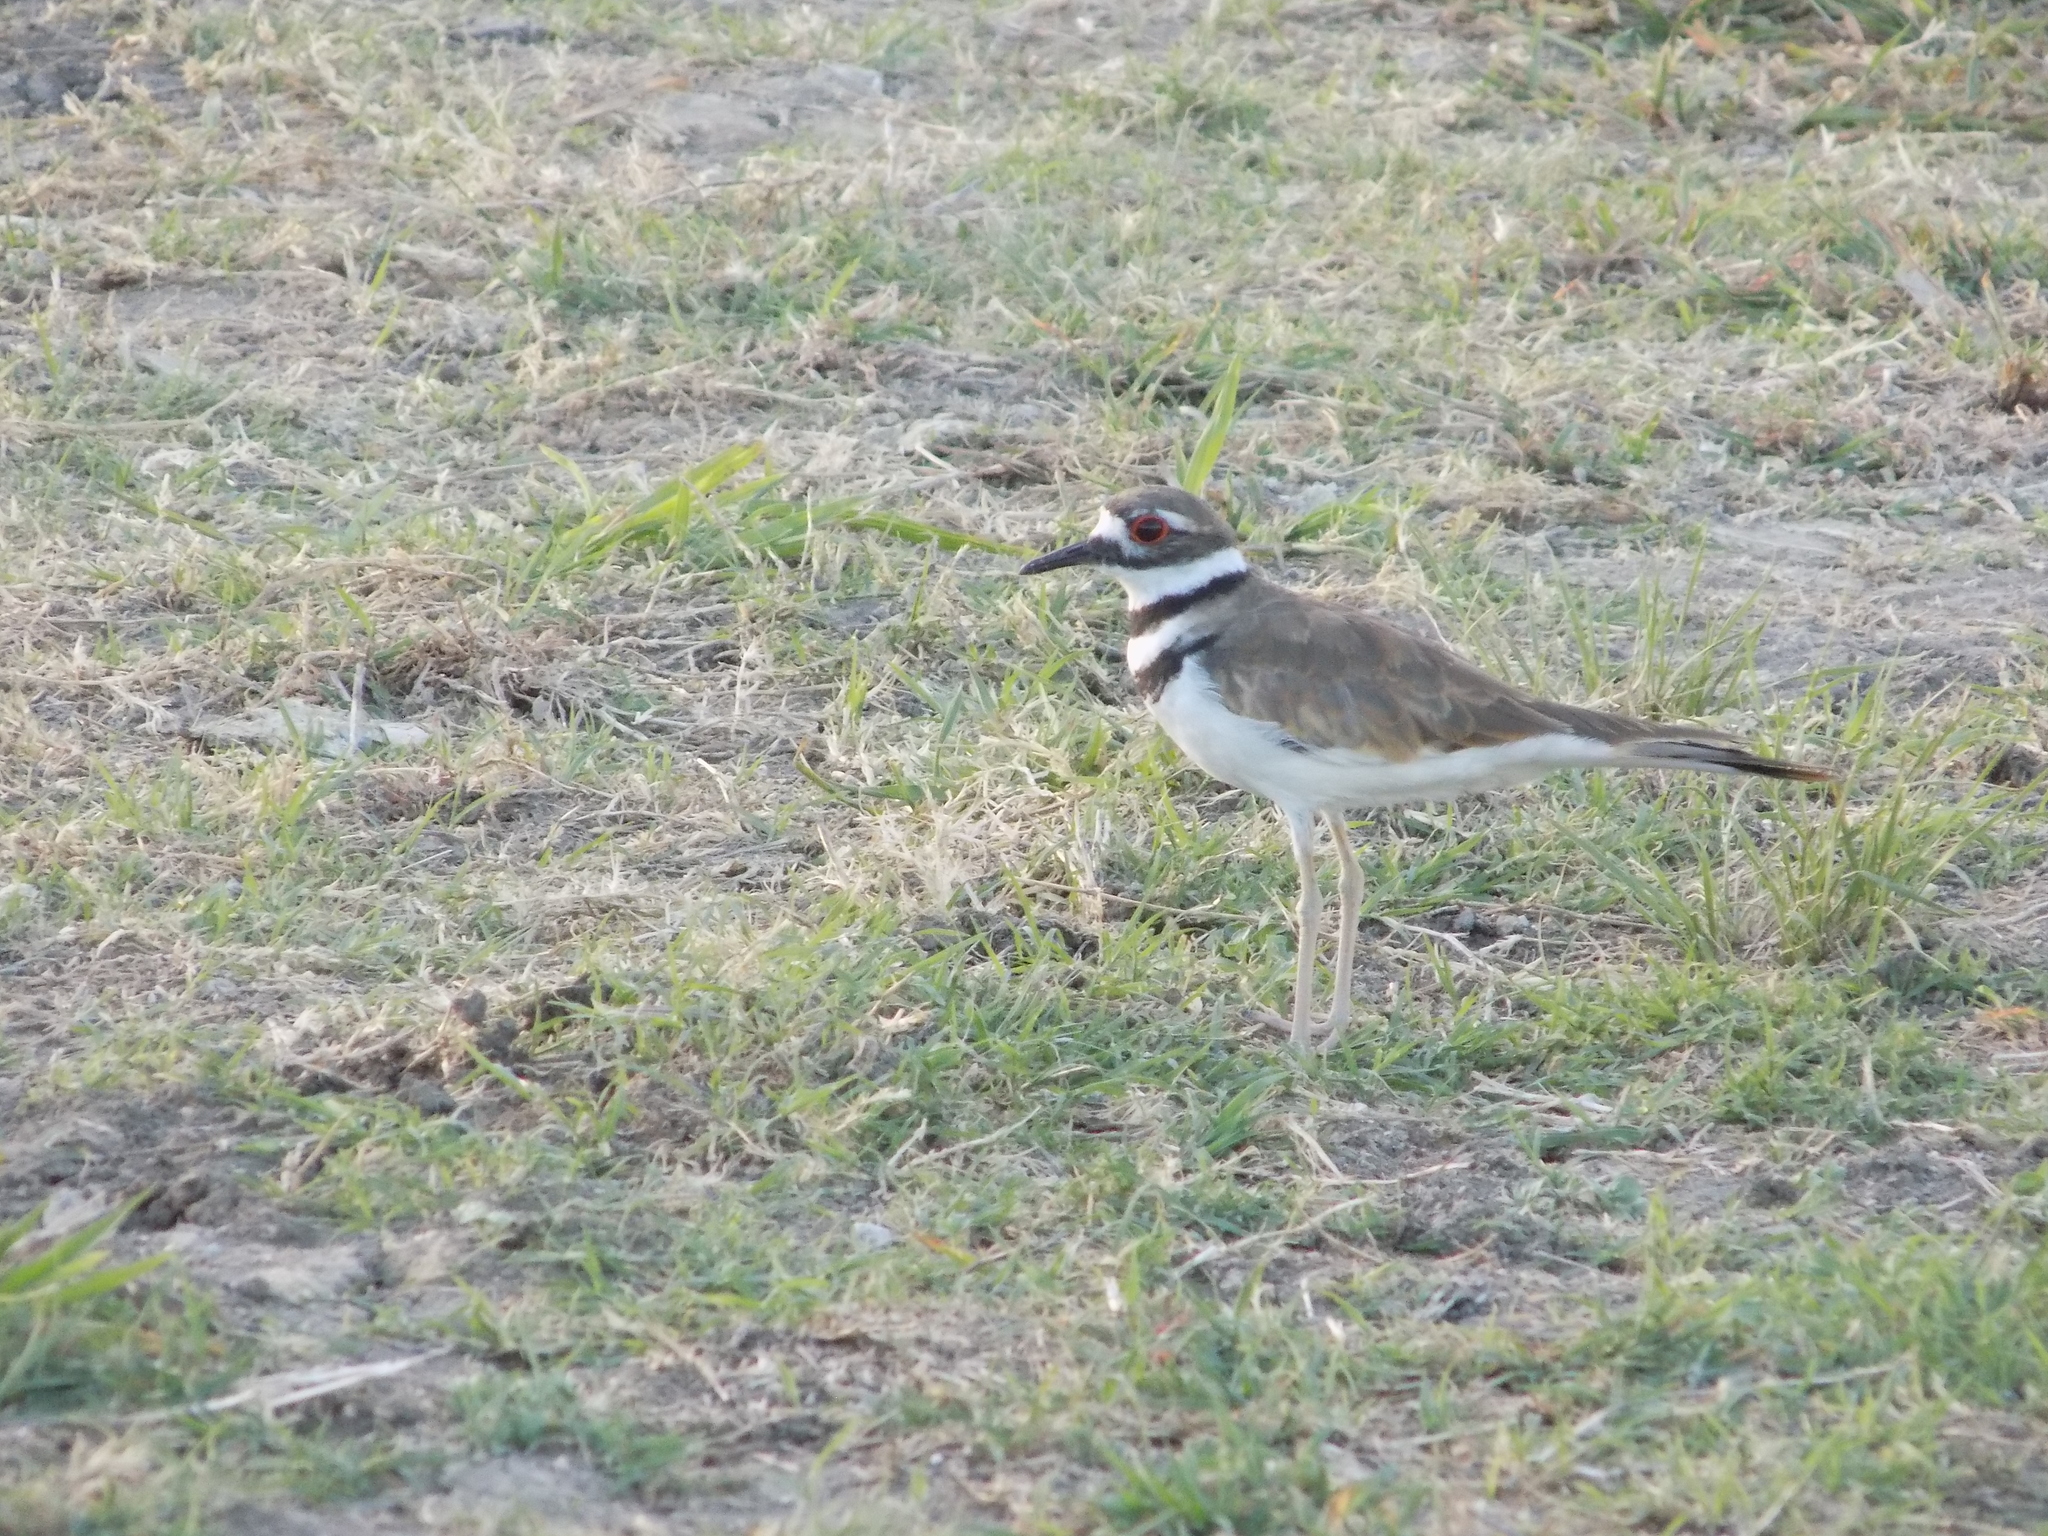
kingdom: Animalia
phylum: Chordata
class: Aves
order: Charadriiformes
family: Charadriidae
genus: Charadrius
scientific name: Charadrius vociferus
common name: Killdeer
